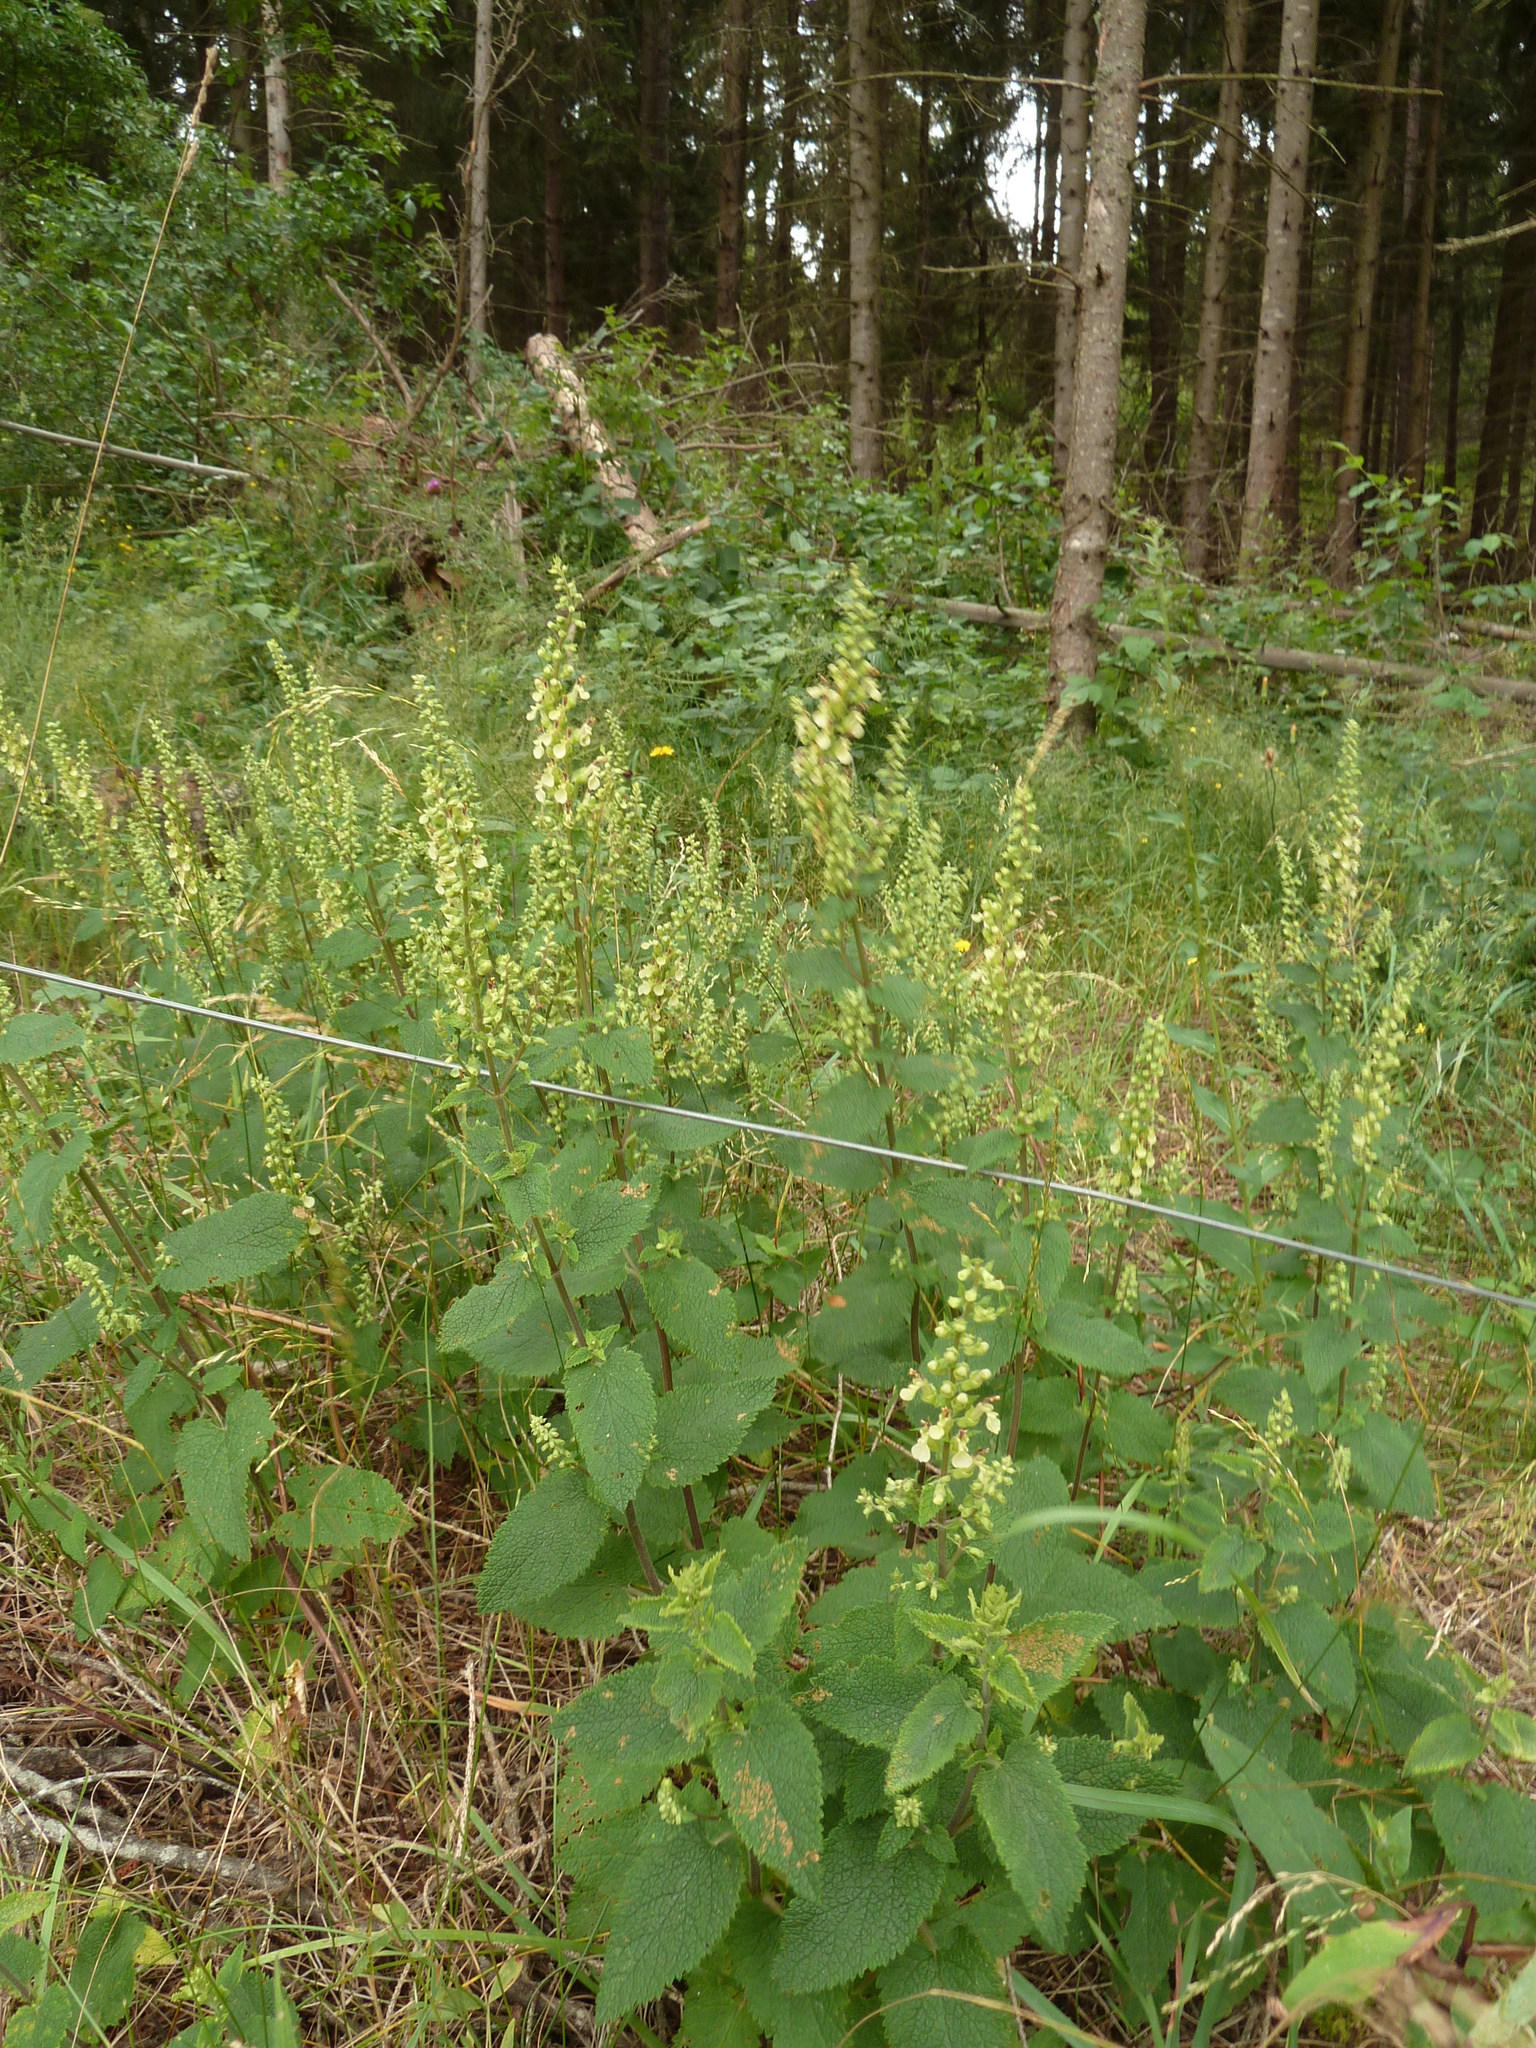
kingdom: Plantae
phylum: Tracheophyta
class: Magnoliopsida
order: Lamiales
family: Lamiaceae
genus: Teucrium
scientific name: Teucrium scorodonia
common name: Woodland germander
